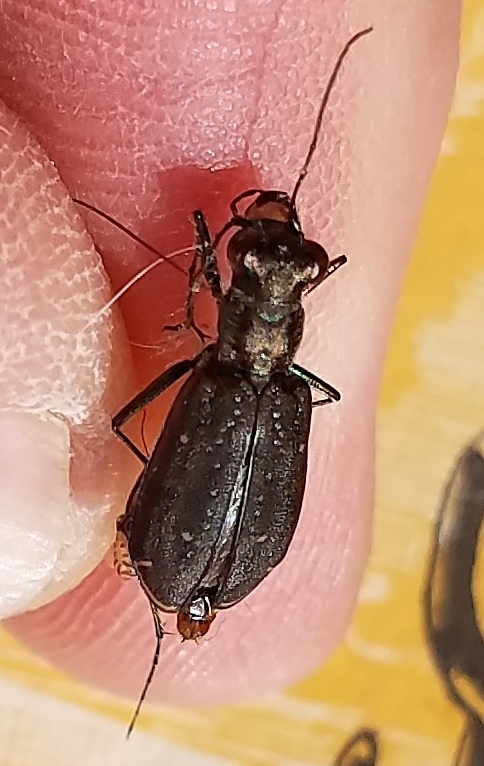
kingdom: Animalia
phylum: Arthropoda
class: Insecta
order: Coleoptera
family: Carabidae
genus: Cicindela
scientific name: Cicindela punctulata
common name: Punctured tiger beetle
